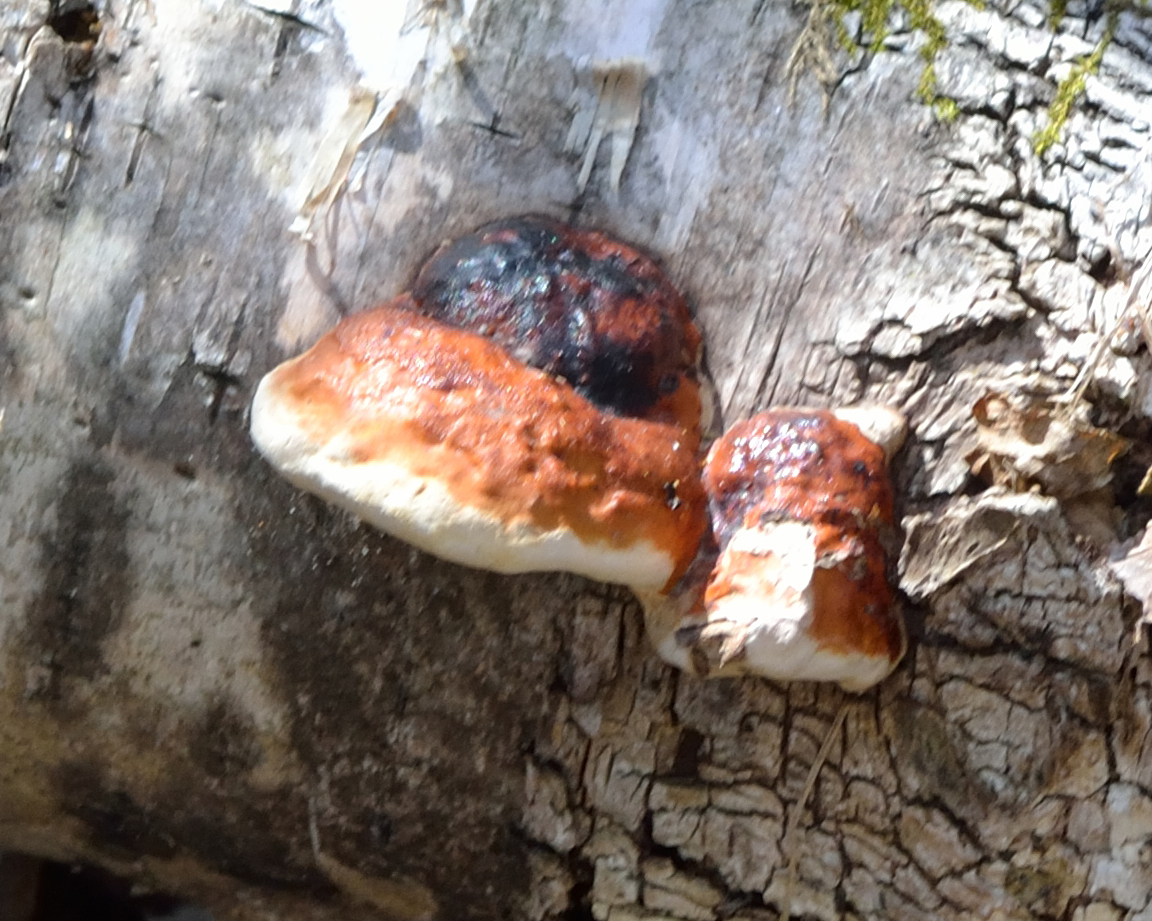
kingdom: Fungi
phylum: Basidiomycota
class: Agaricomycetes
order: Polyporales
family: Fomitopsidaceae
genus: Fomitopsis
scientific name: Fomitopsis pinicola
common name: Red-belted bracket
